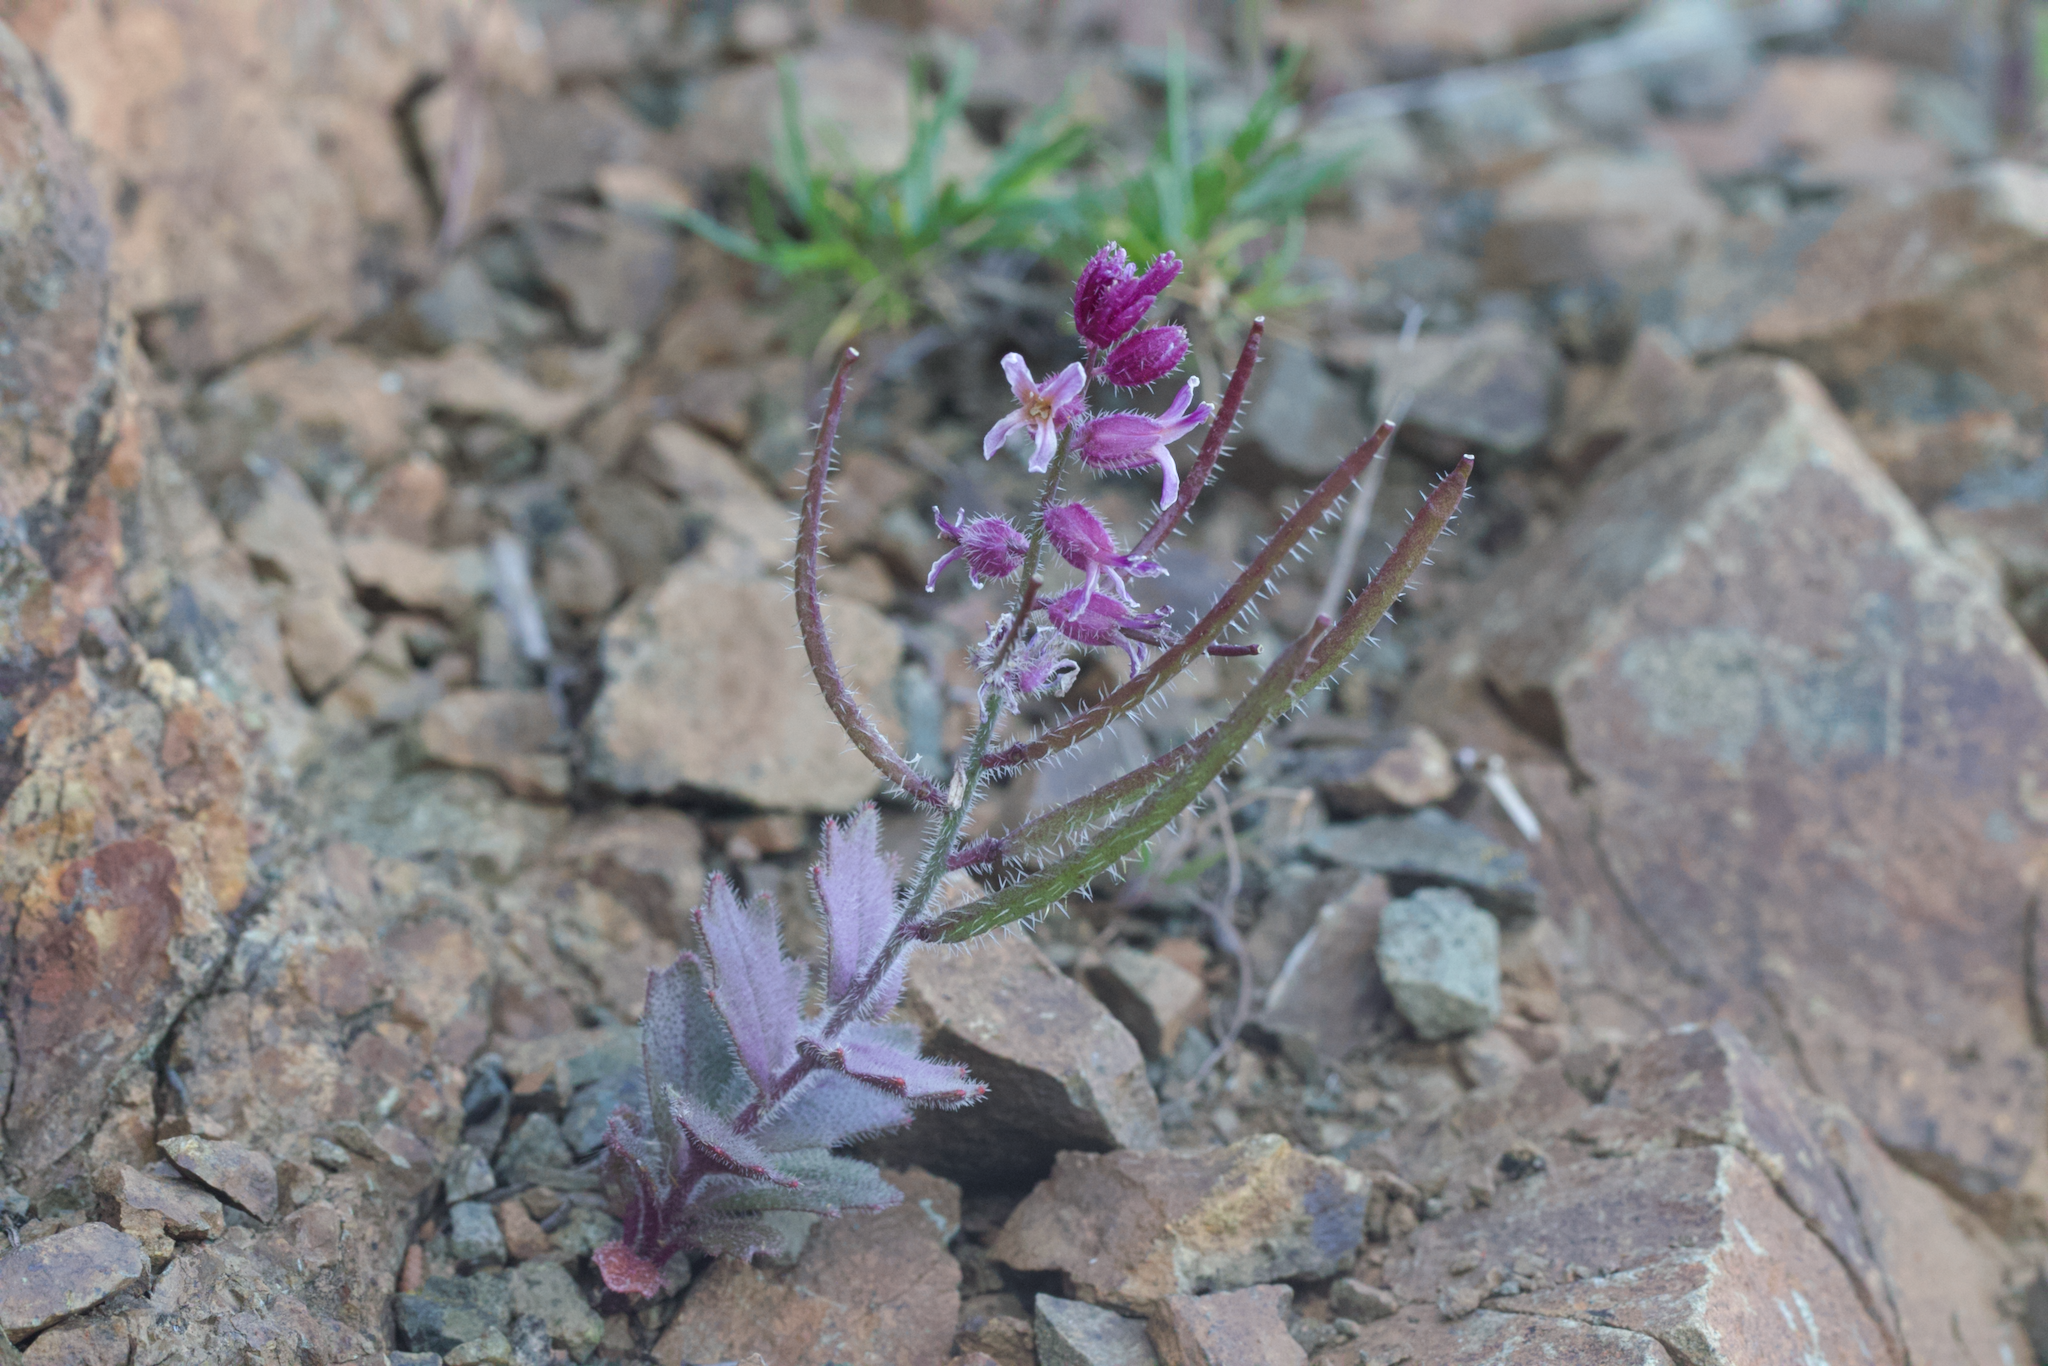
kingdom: Plantae
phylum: Tracheophyta
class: Magnoliopsida
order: Brassicales
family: Brassicaceae
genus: Streptanthus
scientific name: Streptanthus hispidus
